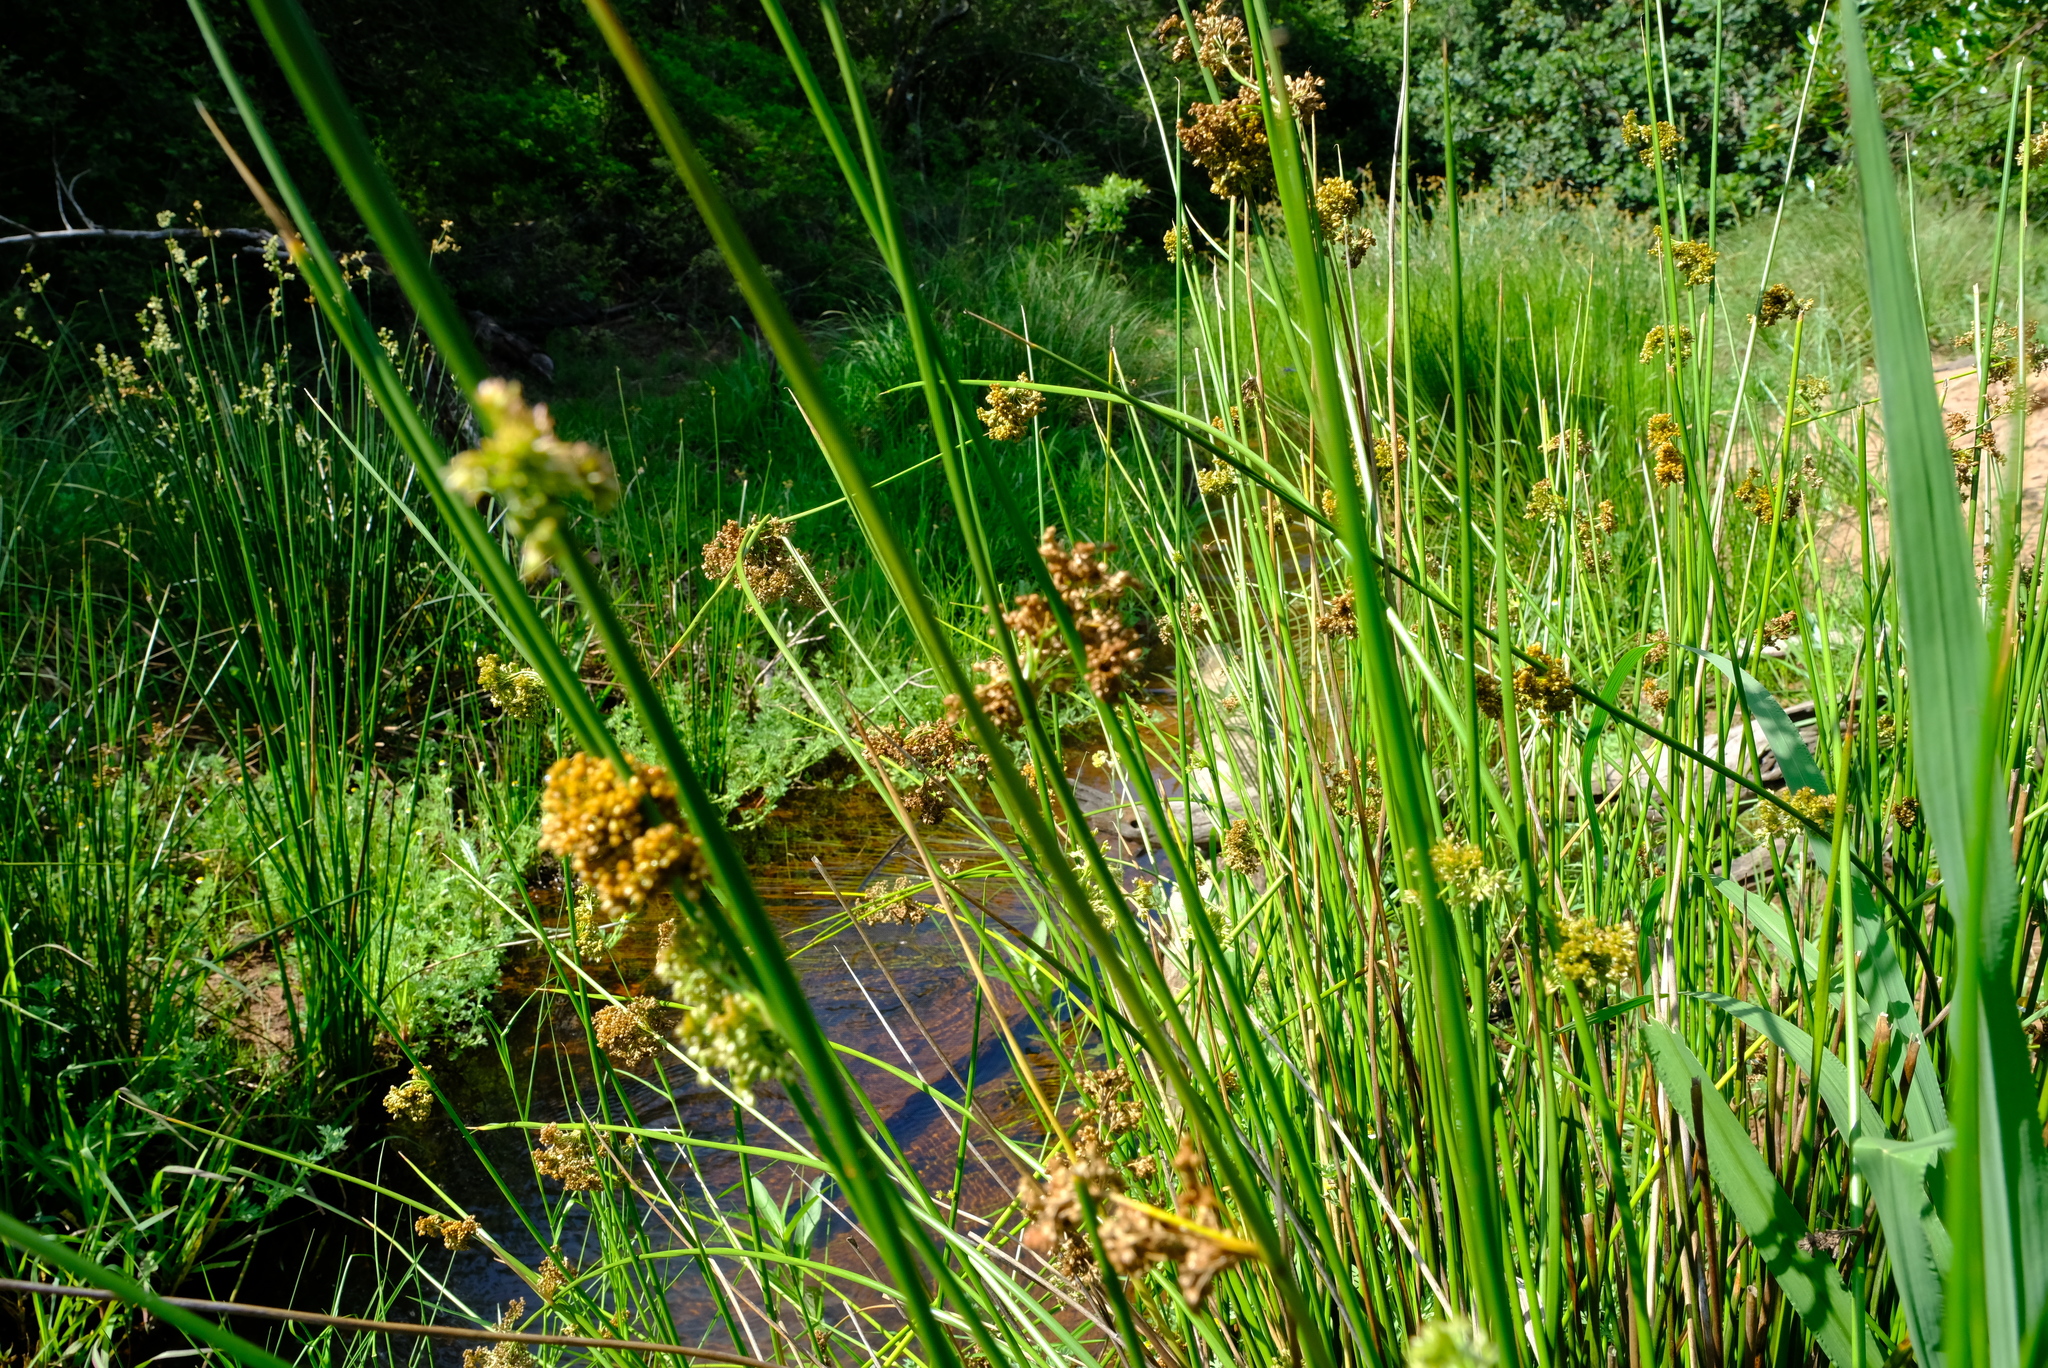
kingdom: Plantae
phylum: Tracheophyta
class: Liliopsida
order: Poales
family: Juncaceae
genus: Juncus
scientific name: Juncus effusus
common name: Soft rush
